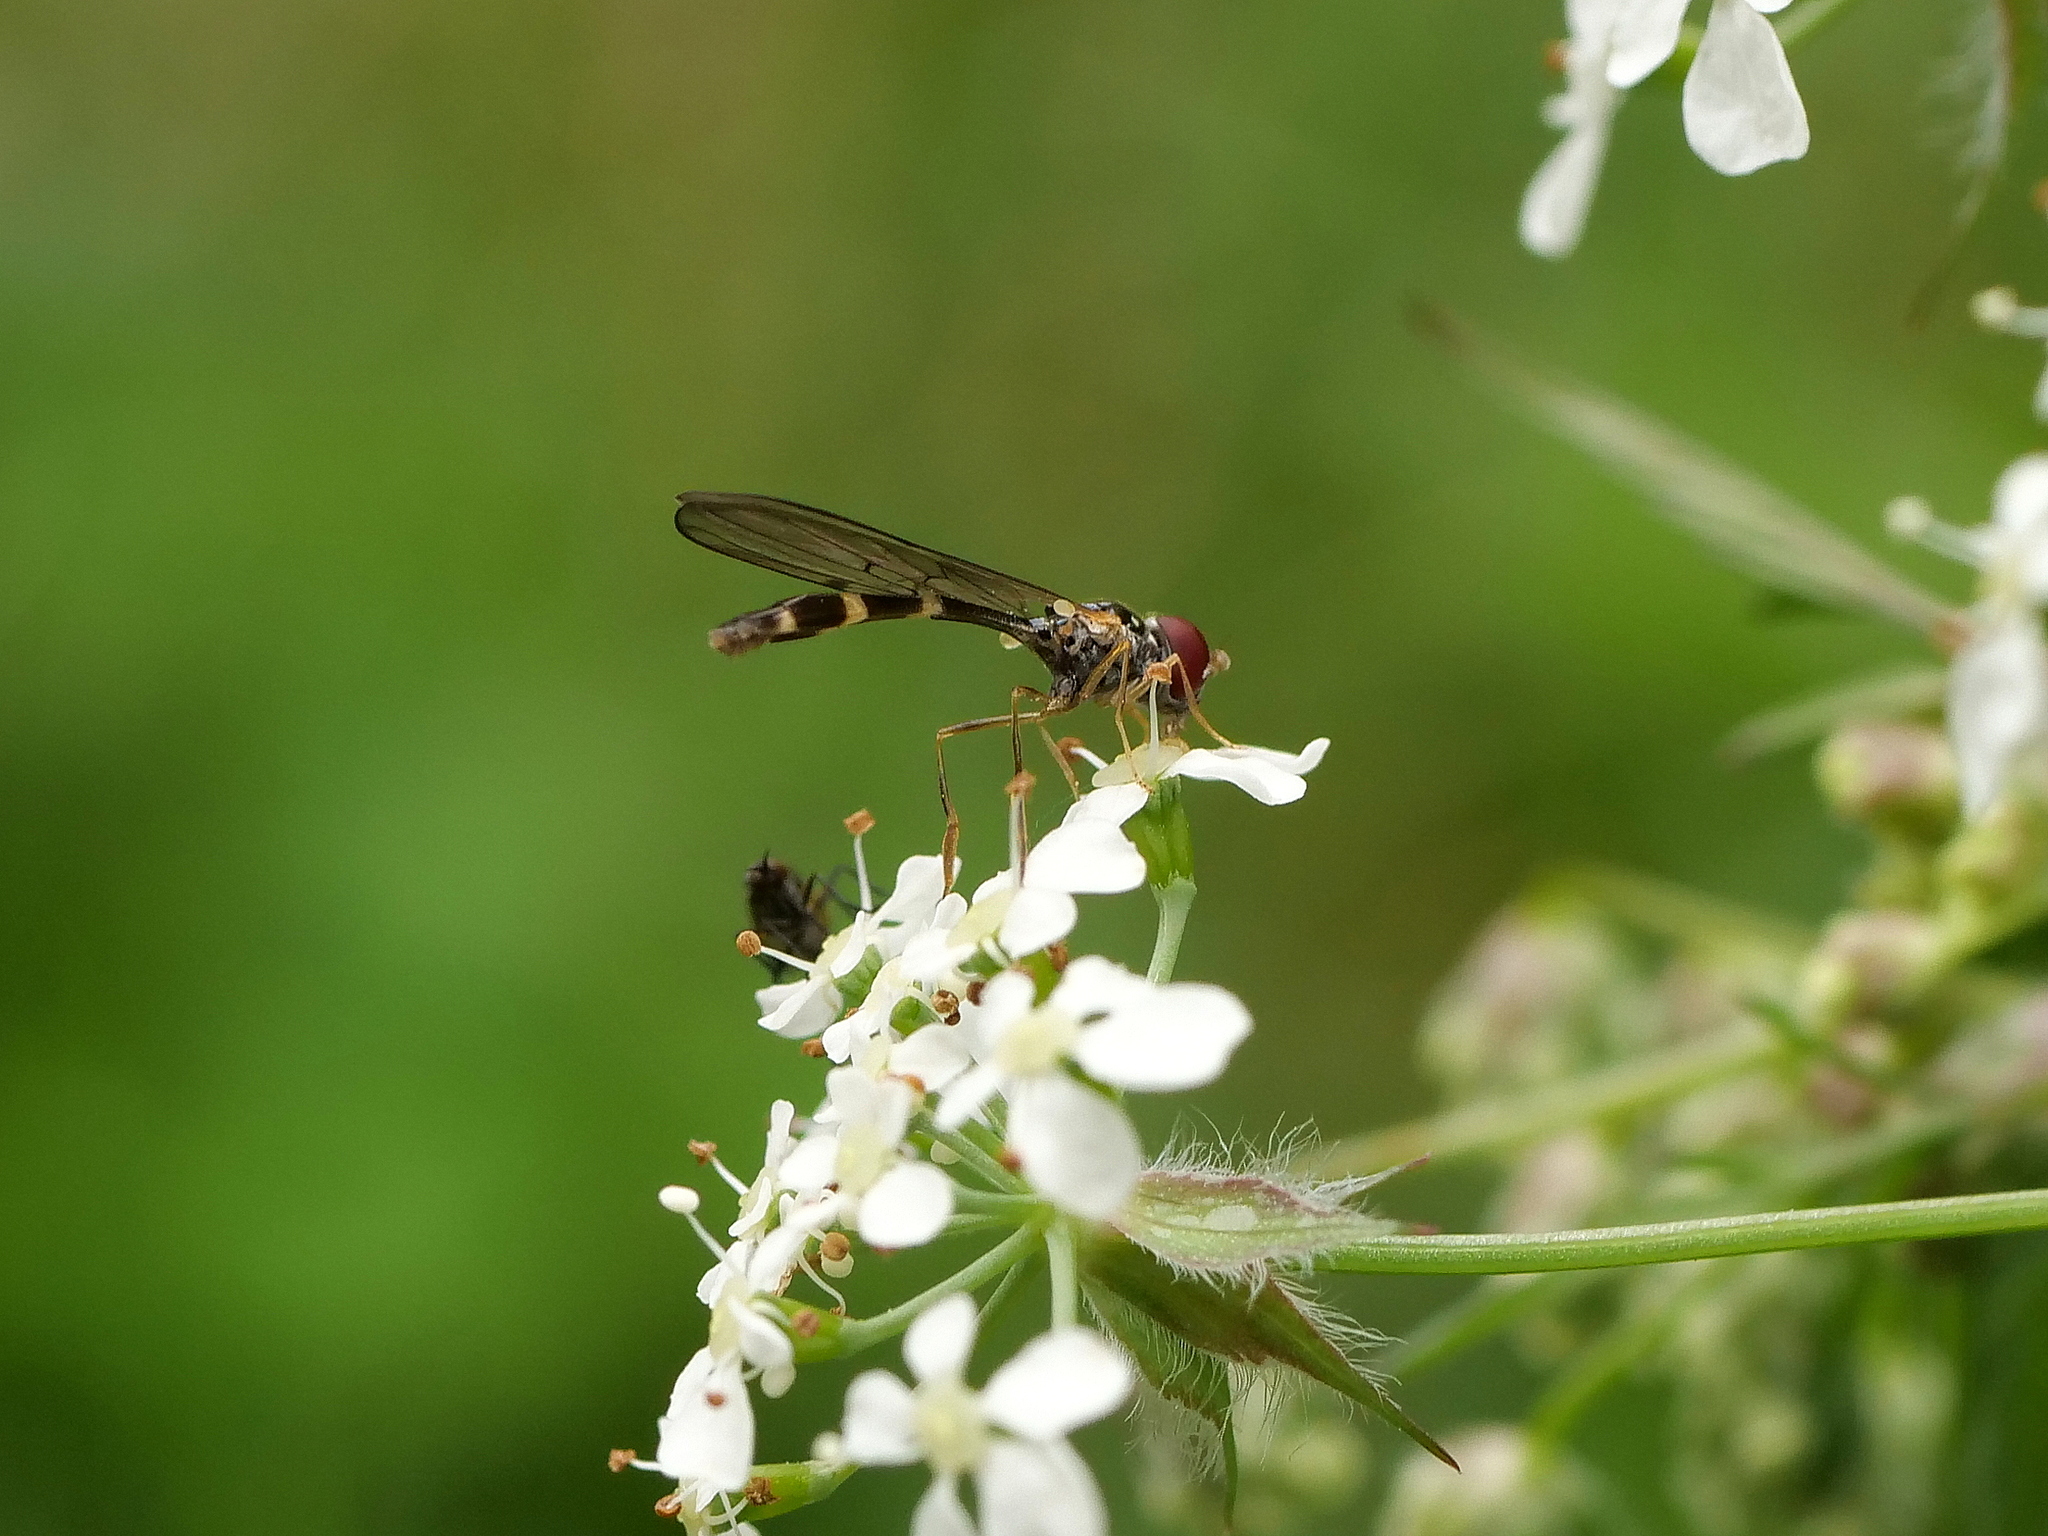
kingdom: Animalia
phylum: Arthropoda
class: Insecta
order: Diptera
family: Syrphidae
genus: Baccha
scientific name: Baccha elongata
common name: Common dainty
